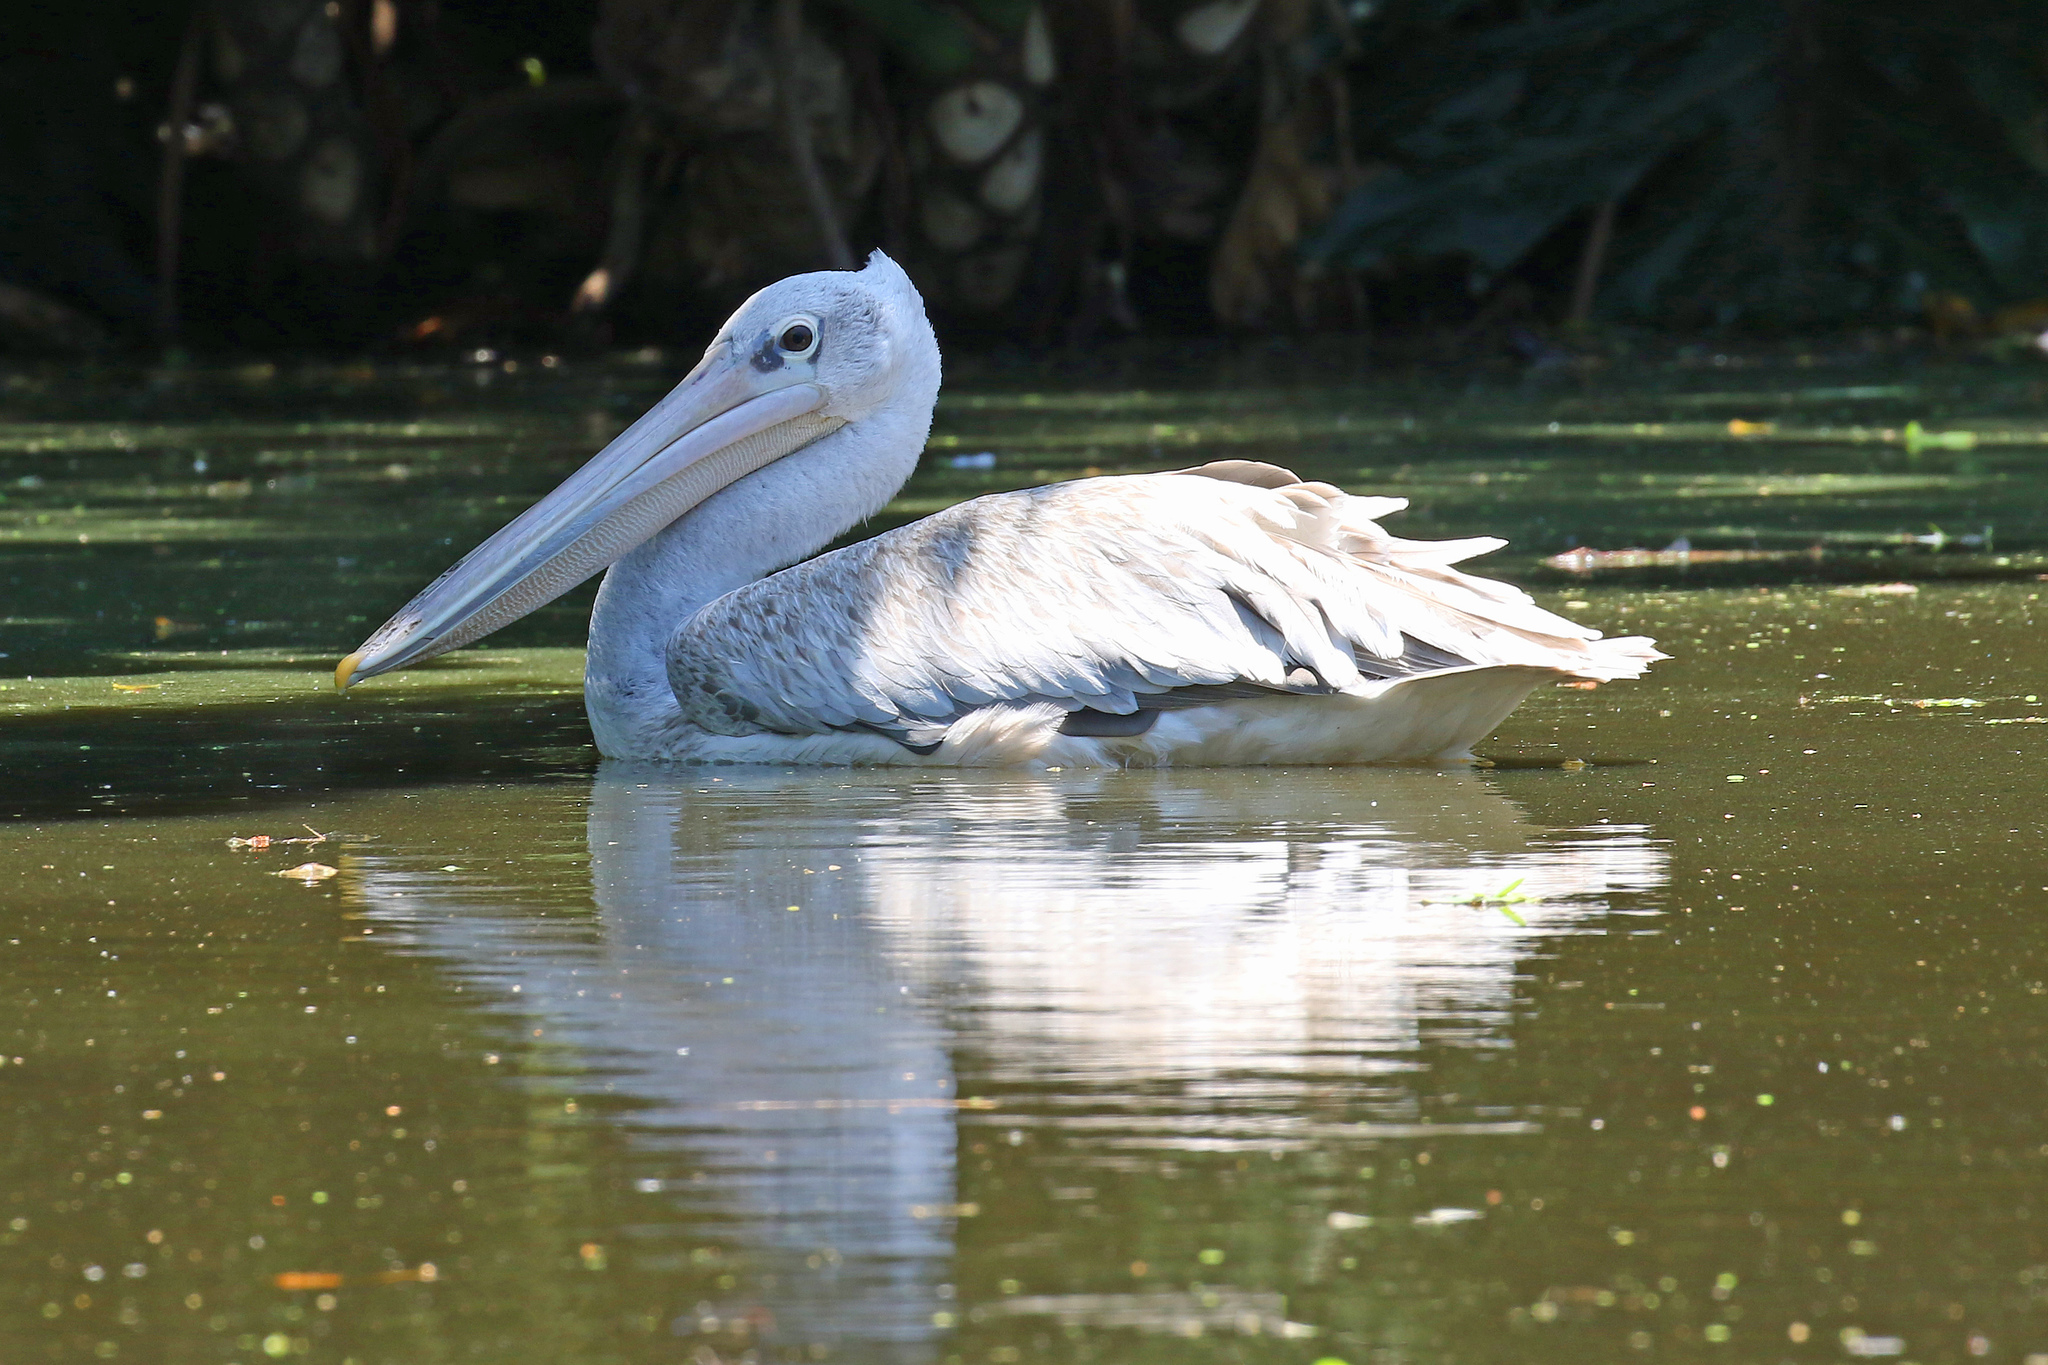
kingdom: Animalia
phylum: Chordata
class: Aves
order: Pelecaniformes
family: Pelecanidae
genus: Pelecanus
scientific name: Pelecanus rufescens
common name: Pink-backed pelican
